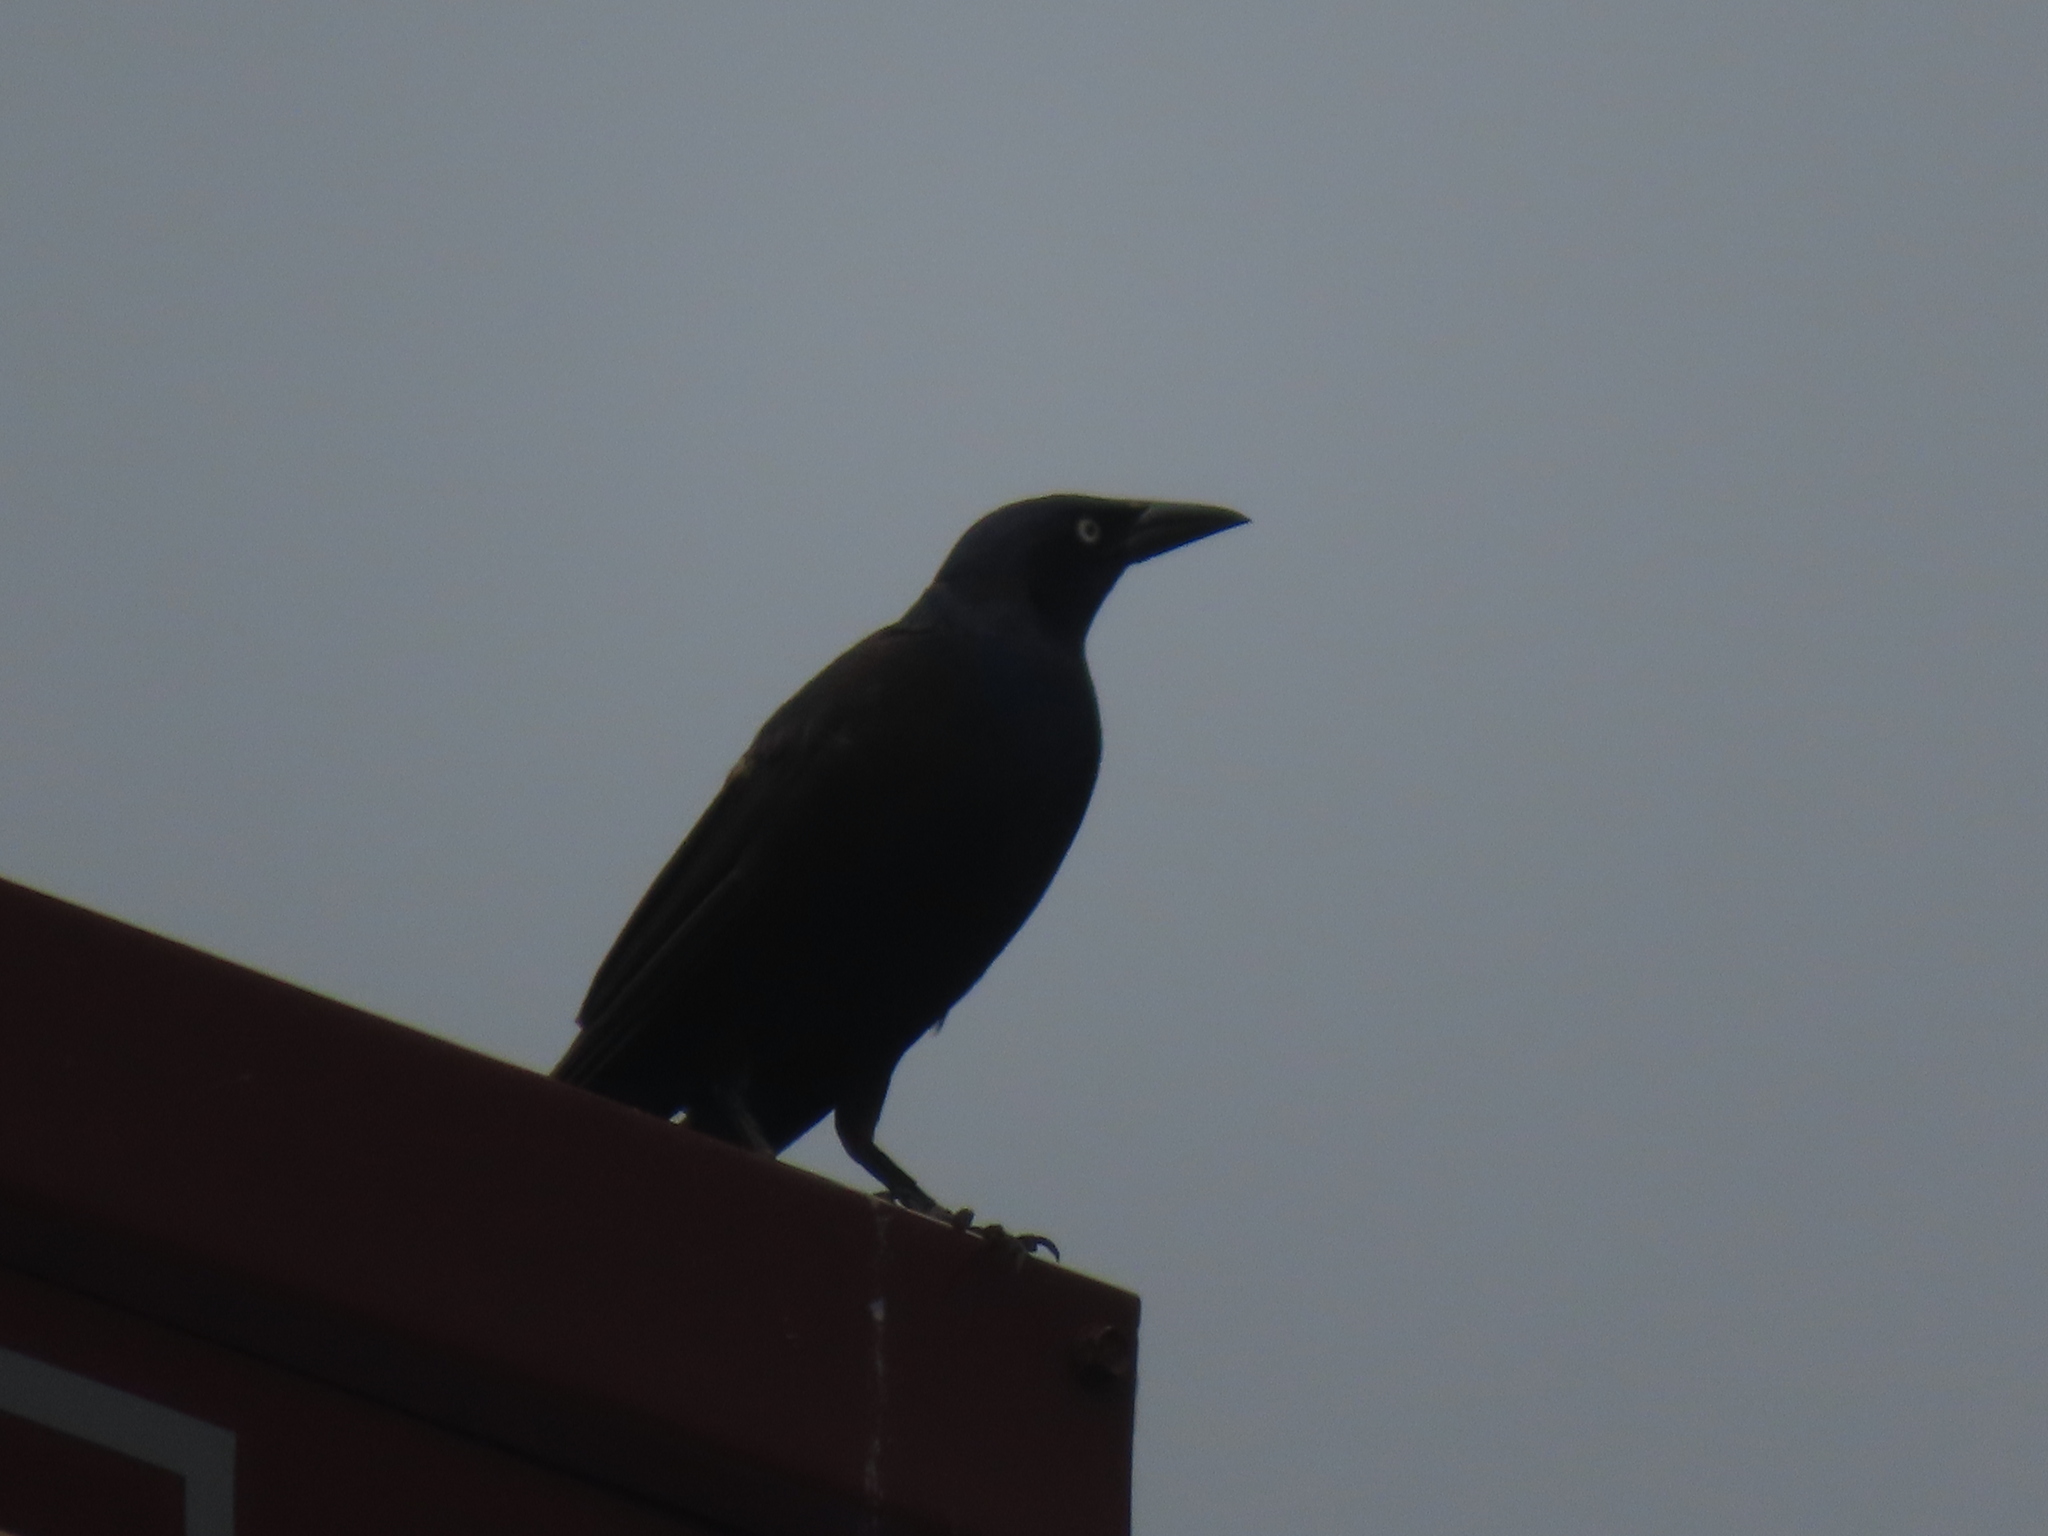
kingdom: Animalia
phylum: Chordata
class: Aves
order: Passeriformes
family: Icteridae
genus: Quiscalus
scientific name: Quiscalus quiscula
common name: Common grackle
